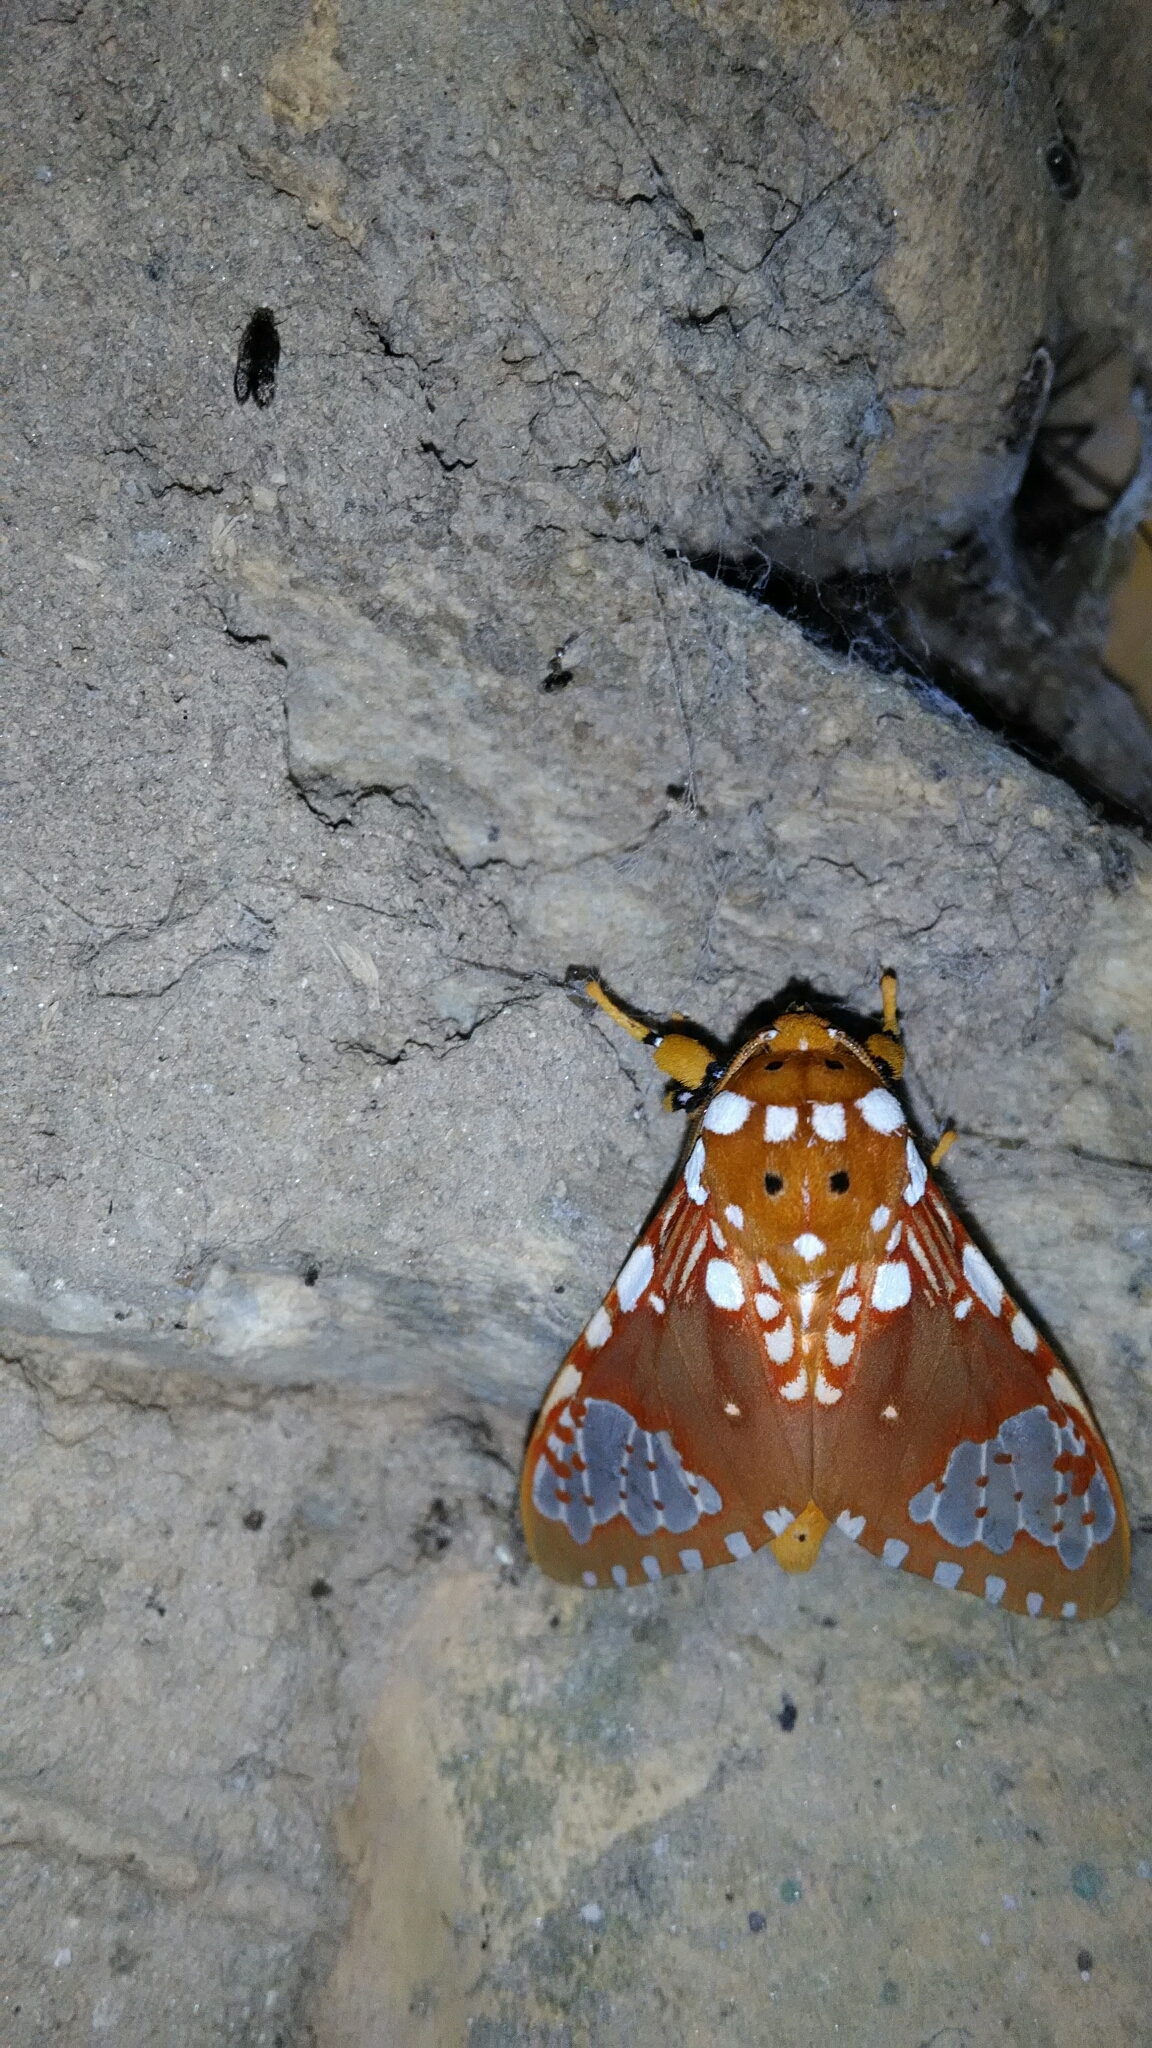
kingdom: Animalia
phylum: Arthropoda
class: Insecta
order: Lepidoptera
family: Erebidae
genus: Rhipha
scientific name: Rhipha flammans
